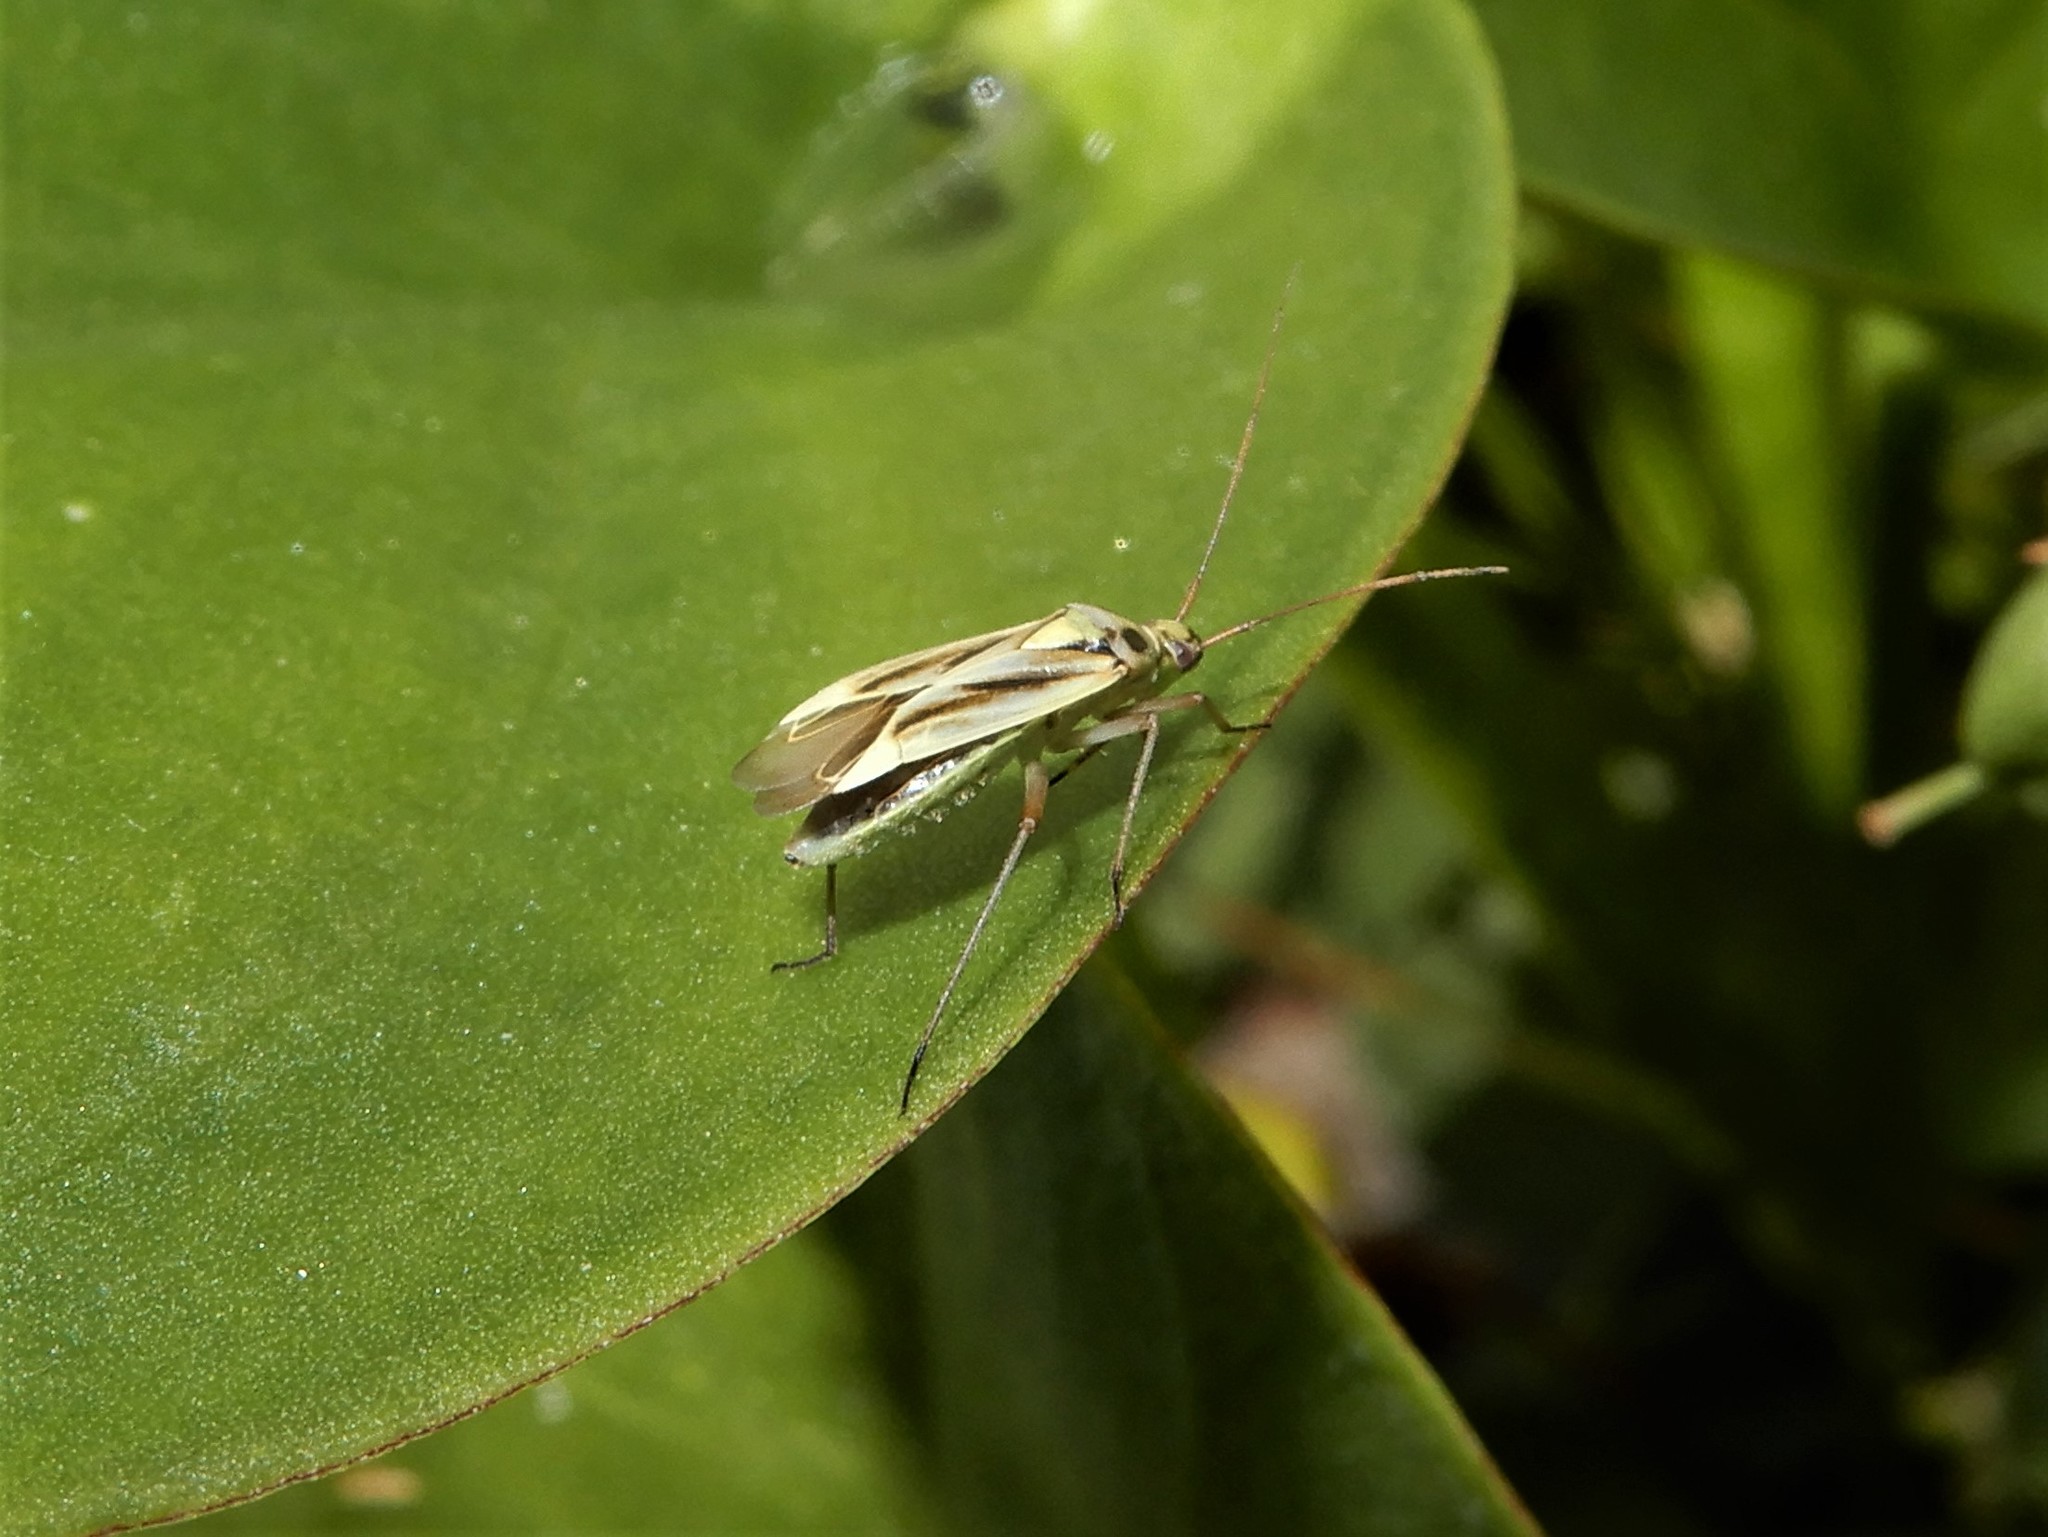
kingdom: Animalia
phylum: Arthropoda
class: Insecta
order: Hemiptera
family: Miridae
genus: Stenotus
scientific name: Stenotus binotatus
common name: Plant bug
